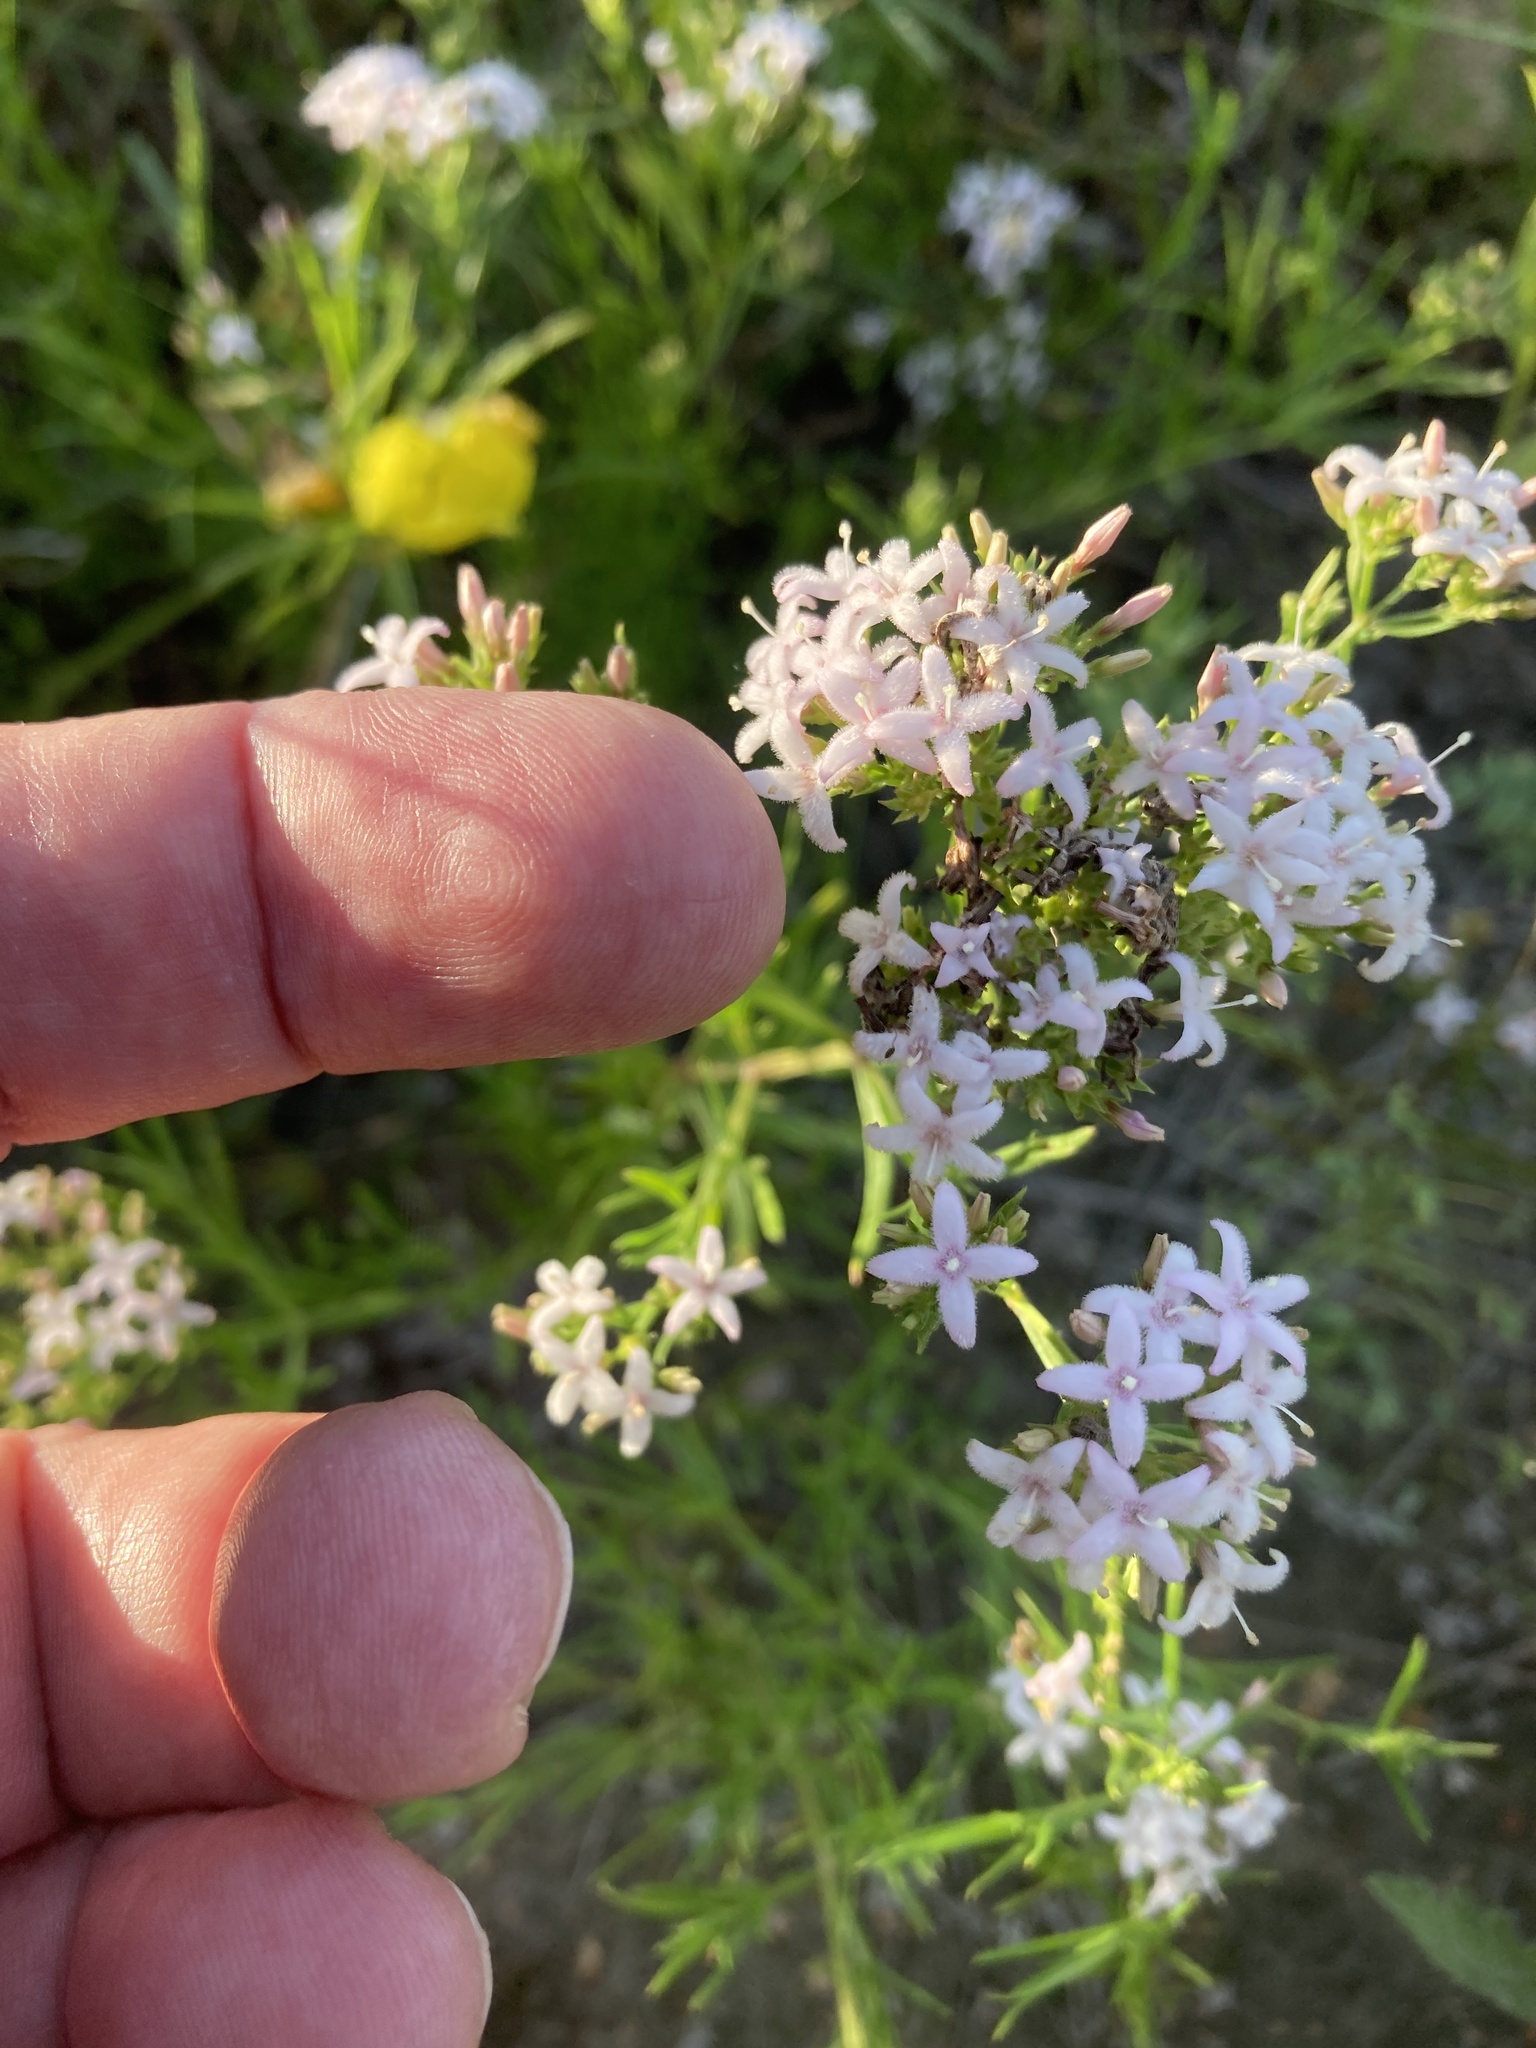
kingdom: Plantae
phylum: Tracheophyta
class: Magnoliopsida
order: Gentianales
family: Rubiaceae
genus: Stenaria
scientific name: Stenaria nigricans
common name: Diamondflowers
